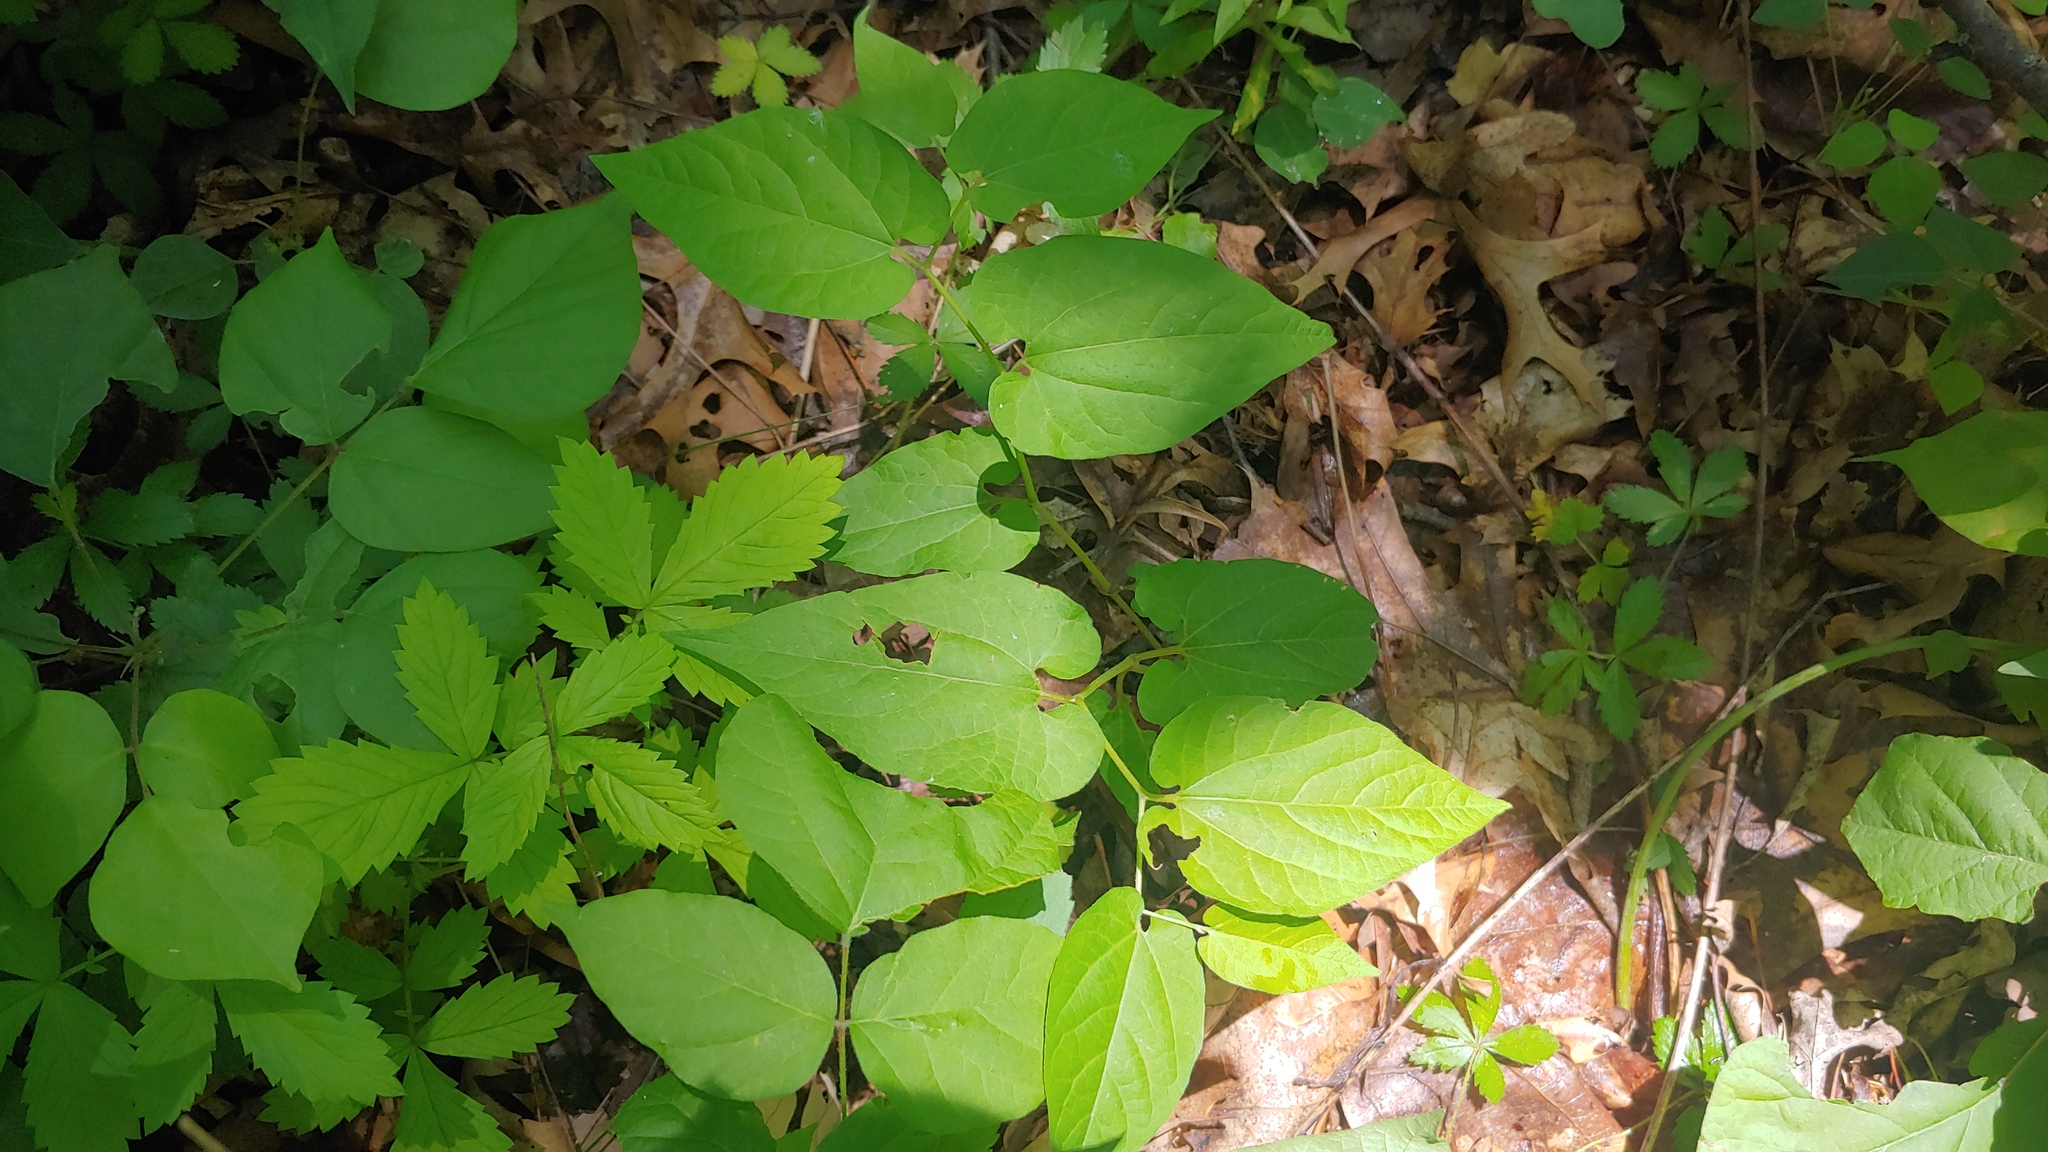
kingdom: Plantae
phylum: Tracheophyta
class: Magnoliopsida
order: Piperales
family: Aristolochiaceae
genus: Endodeca
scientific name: Endodeca serpentaria
